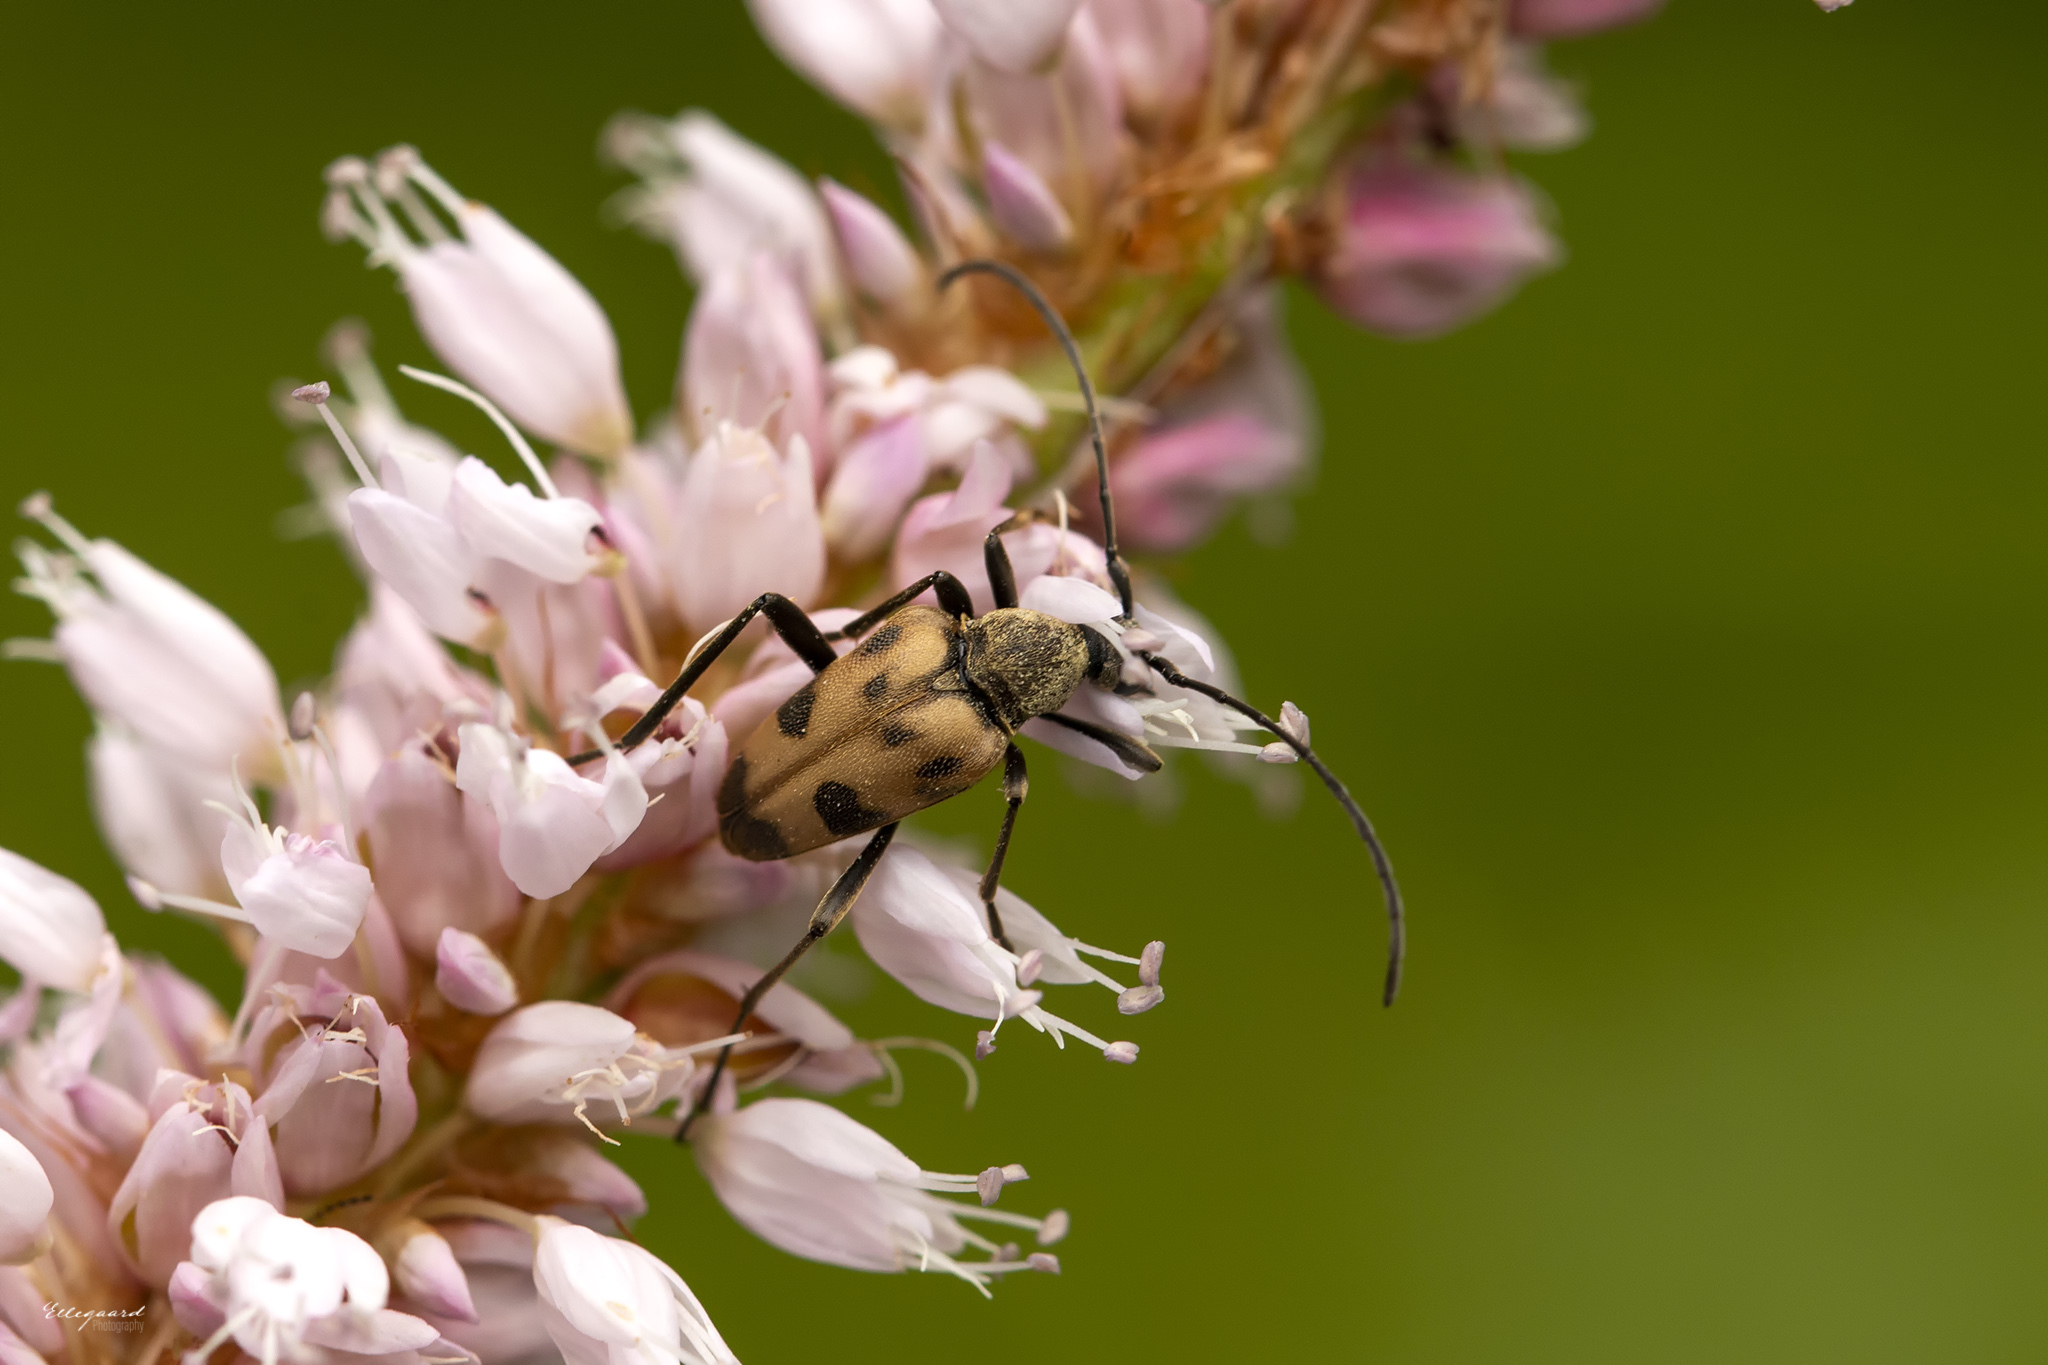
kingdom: Animalia
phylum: Arthropoda
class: Insecta
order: Coleoptera
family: Cerambycidae
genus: Pachytodes
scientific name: Pachytodes cerambyciformis
